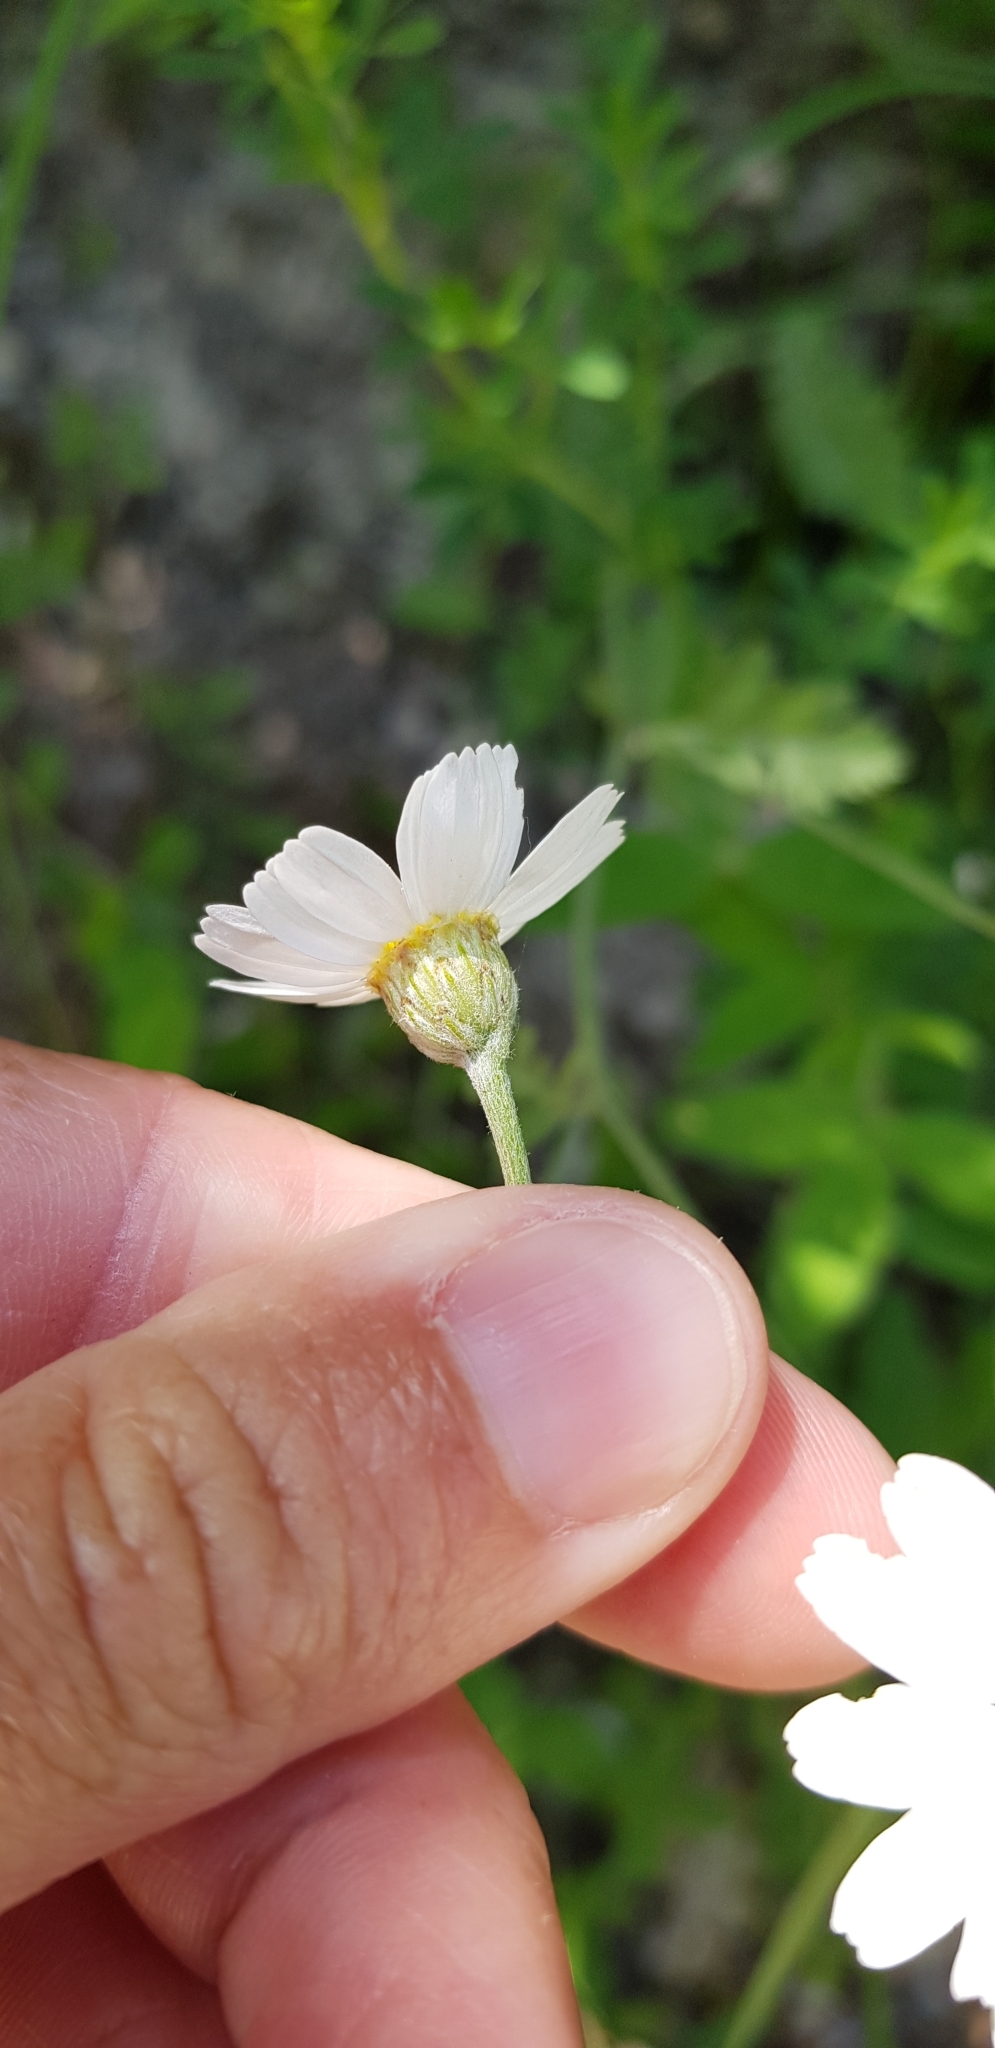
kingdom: Plantae
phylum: Tracheophyta
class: Magnoliopsida
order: Asterales
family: Asteraceae
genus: Tanacetum
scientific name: Tanacetum poteriifolium
